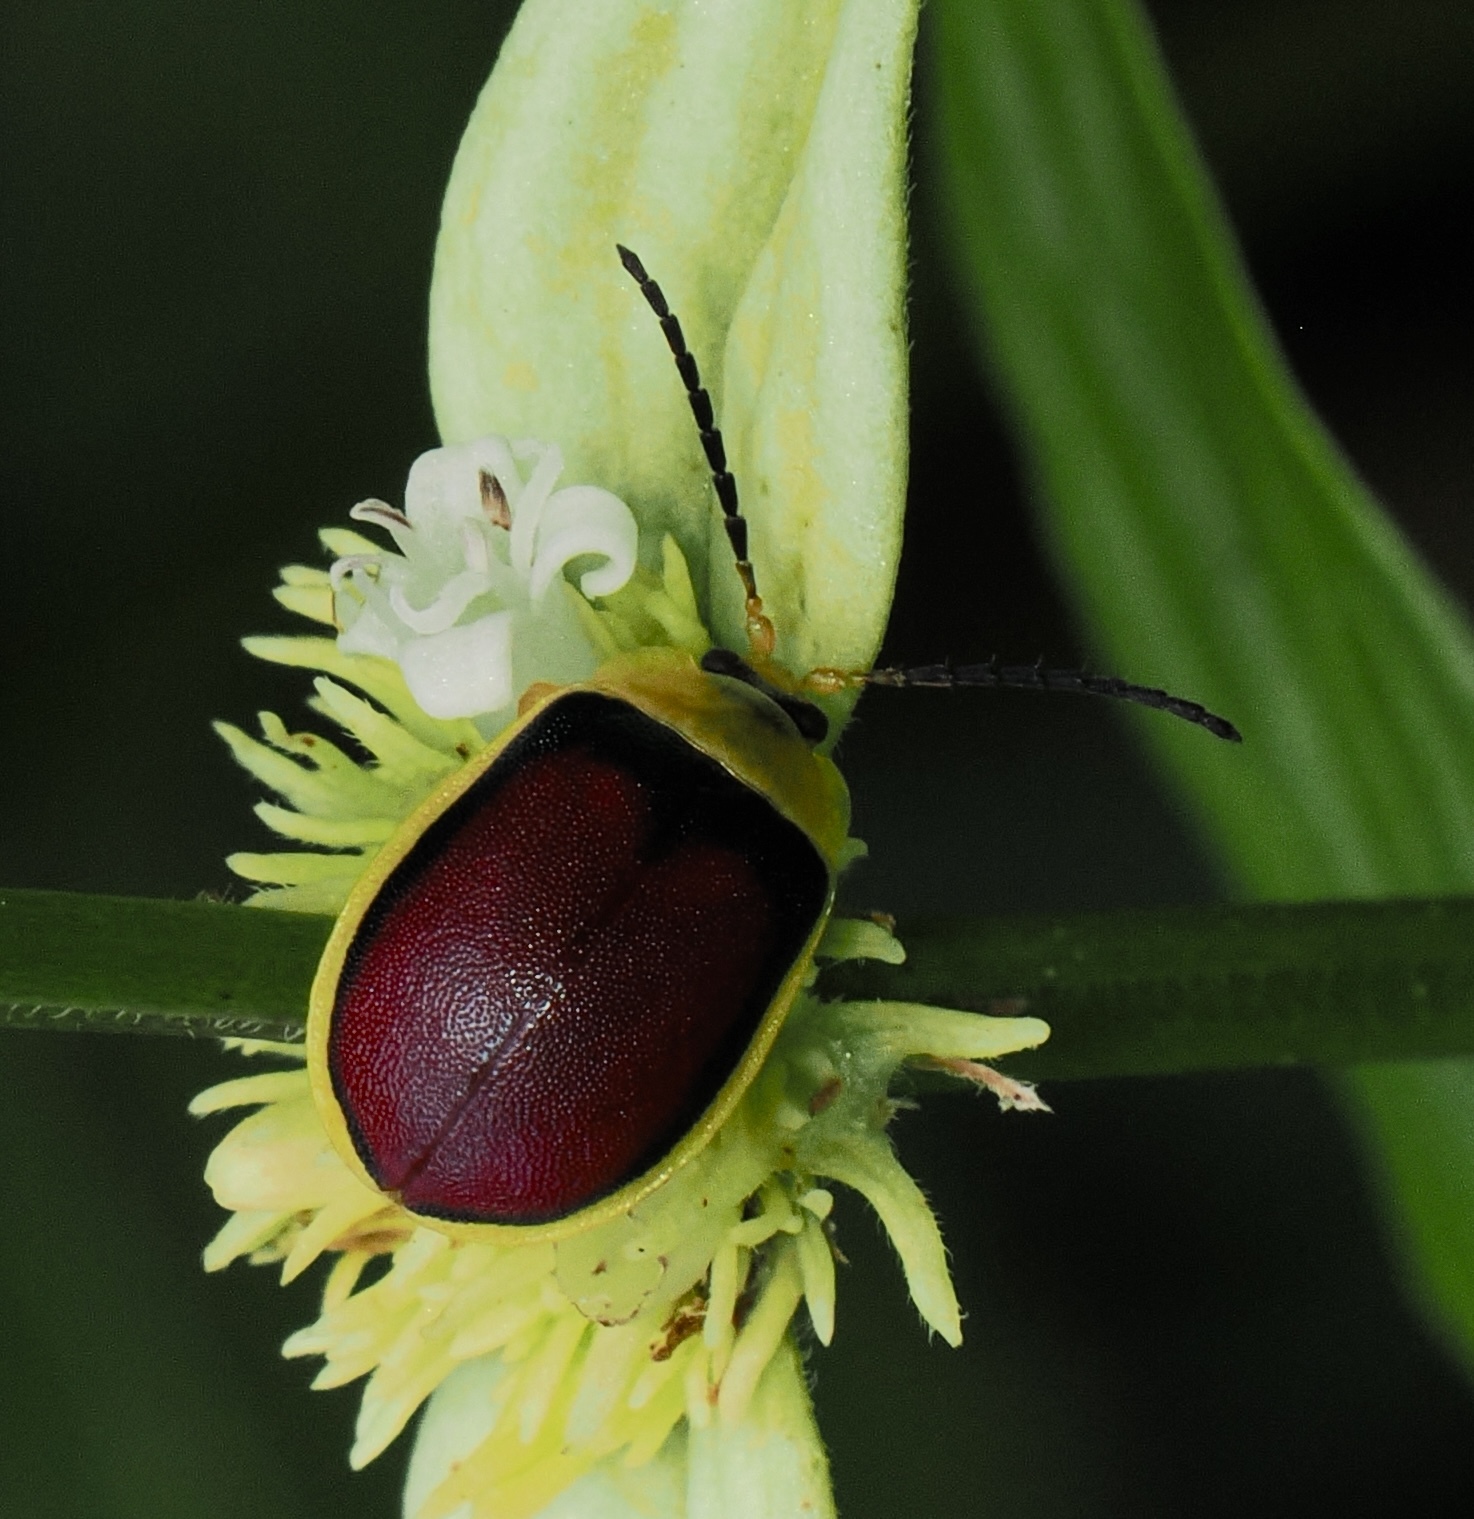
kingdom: Animalia
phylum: Arthropoda
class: Insecta
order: Coleoptera
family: Chrysomelidae
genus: Paranaita
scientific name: Paranaita
